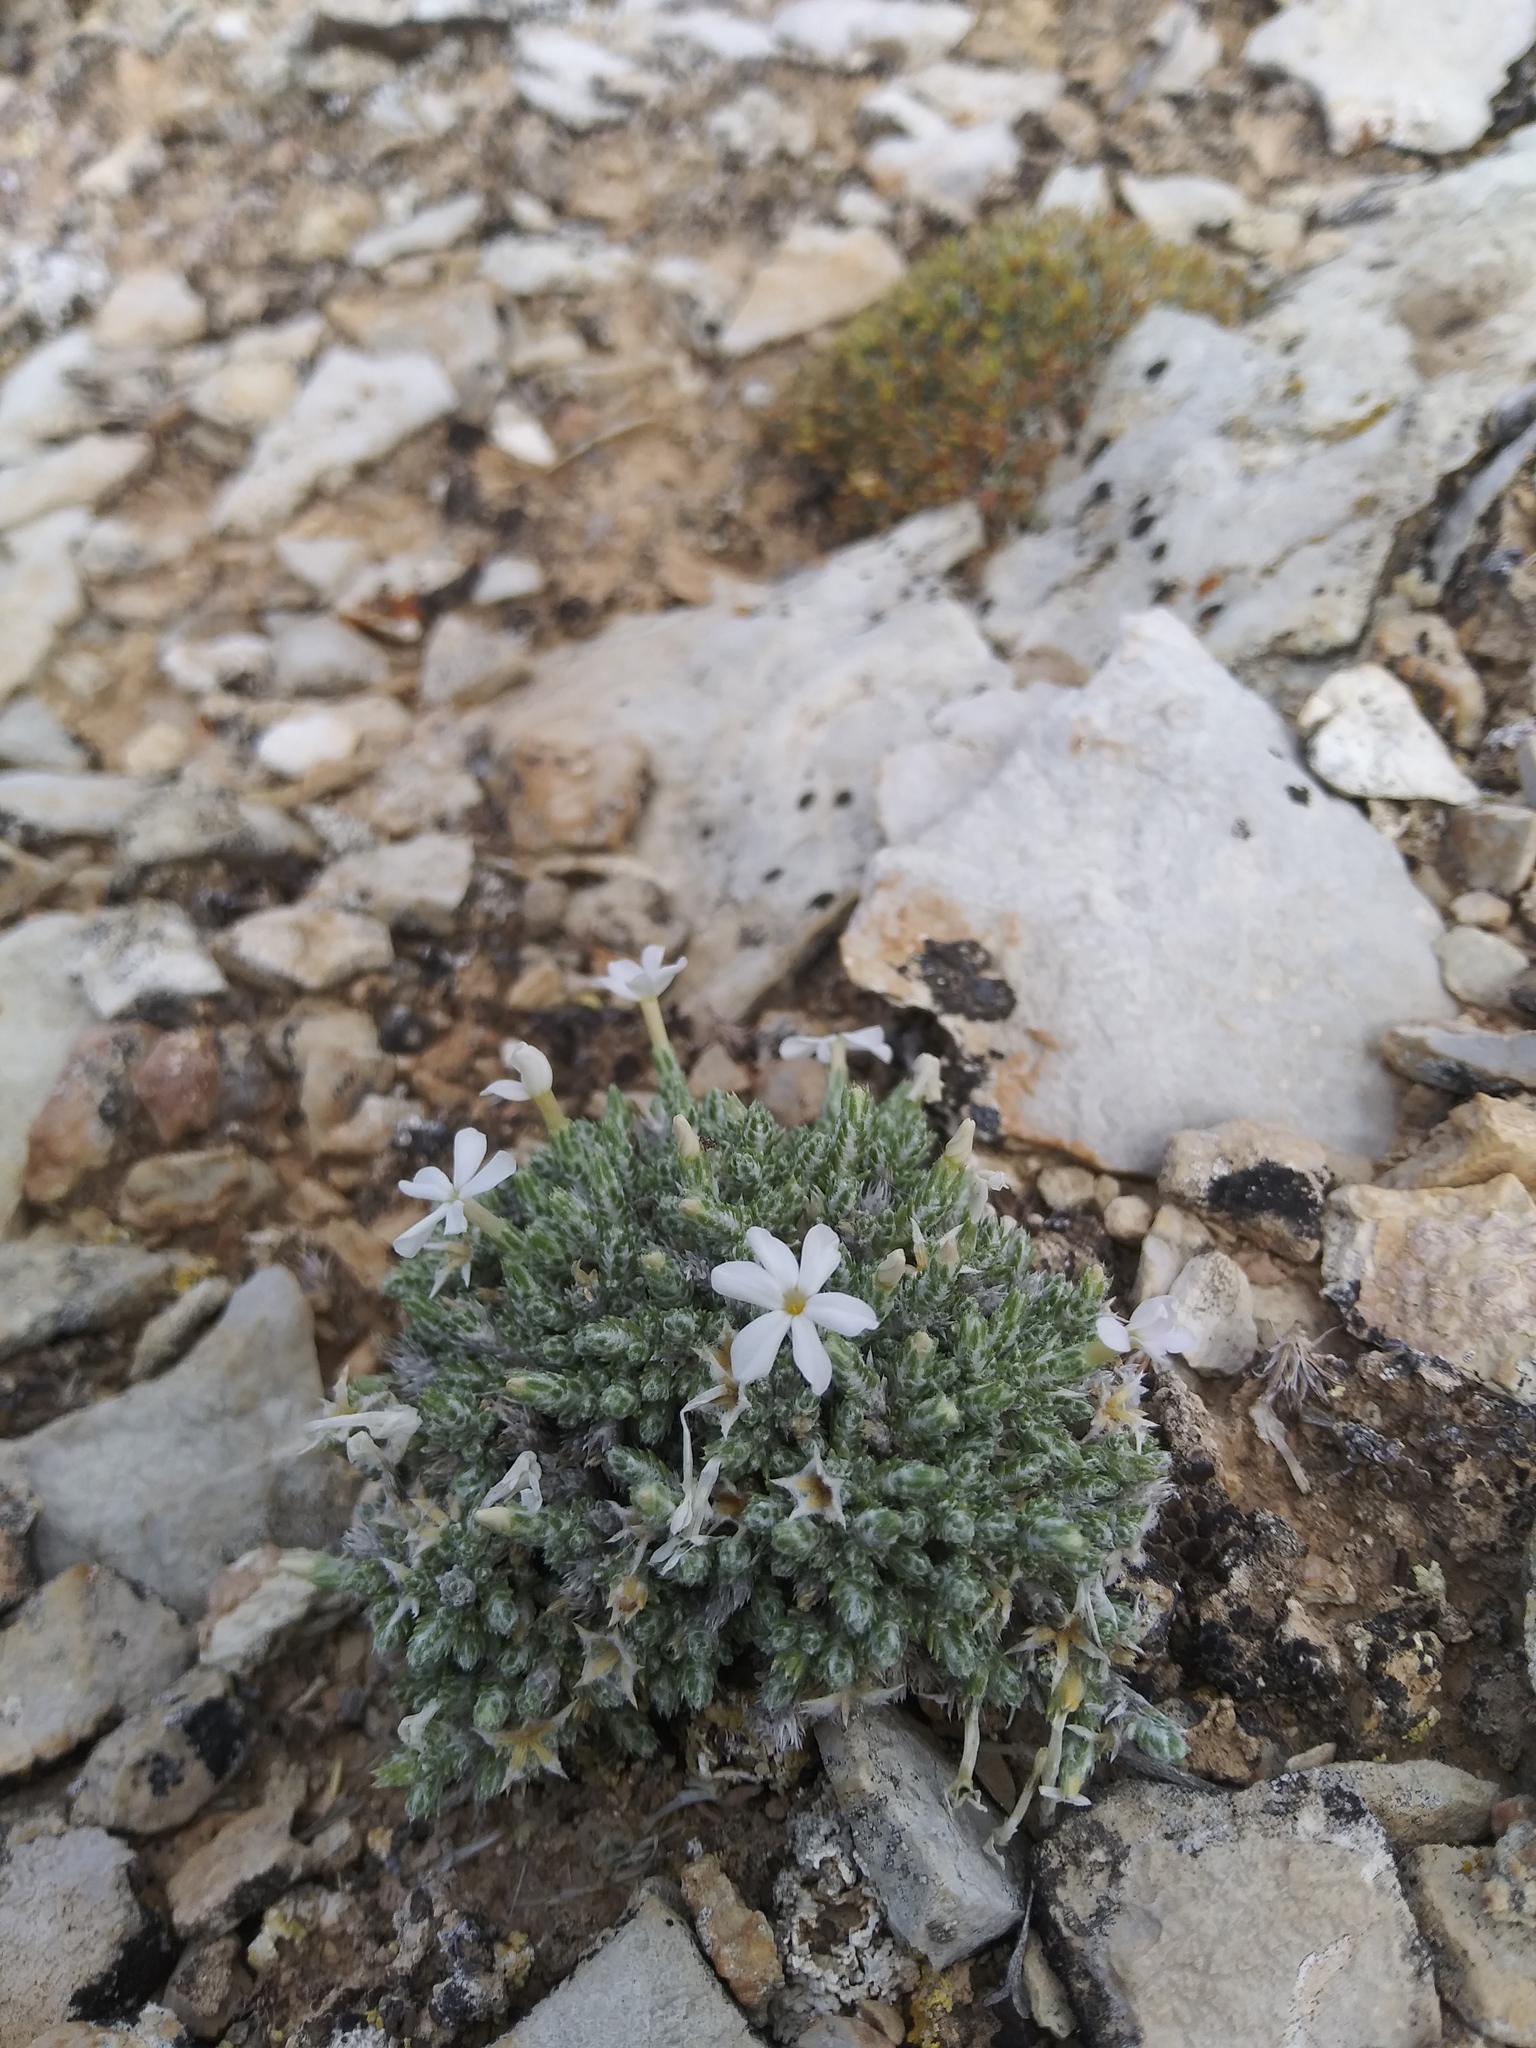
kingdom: Plantae
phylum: Tracheophyta
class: Magnoliopsida
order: Ericales
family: Polemoniaceae
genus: Phlox
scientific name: Phlox hoodii
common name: Moss phlox
